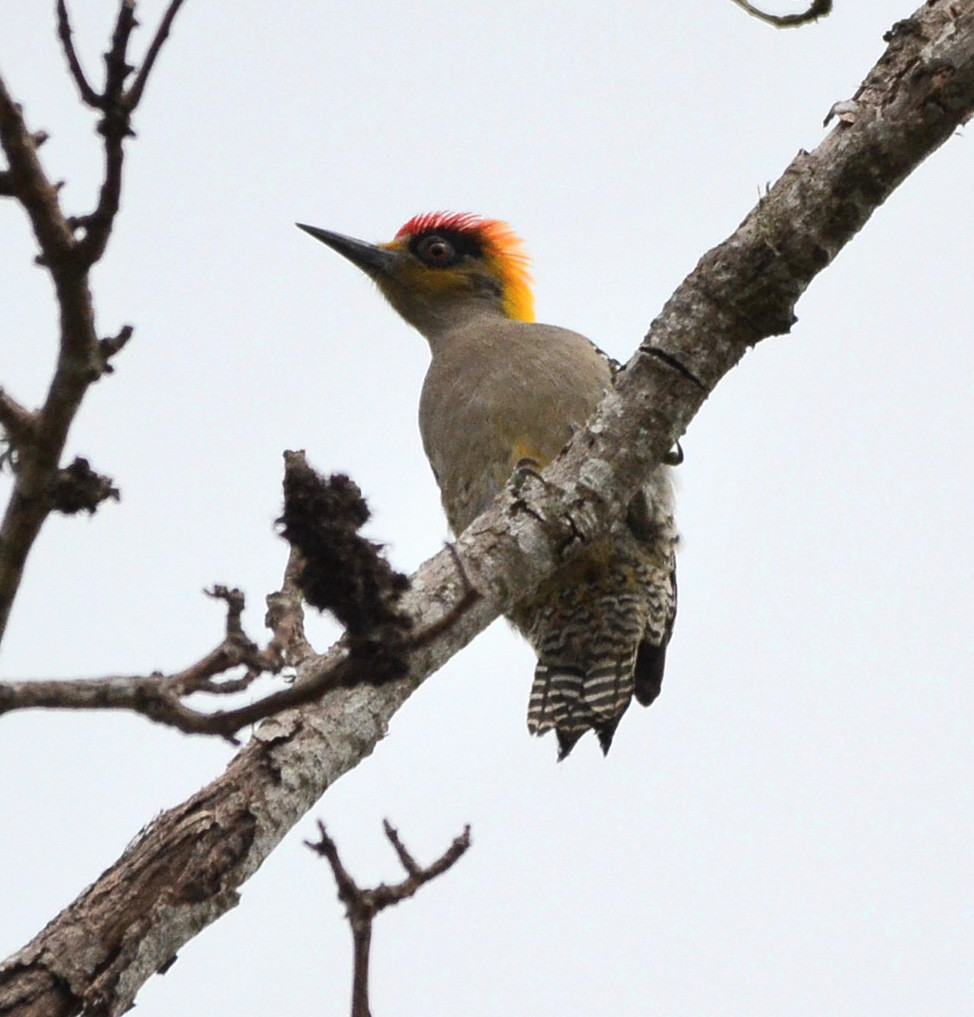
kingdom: Animalia
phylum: Chordata
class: Aves
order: Piciformes
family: Picidae
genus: Melanerpes
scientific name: Melanerpes chrysogenys
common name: Golden-cheeked woodpecker
